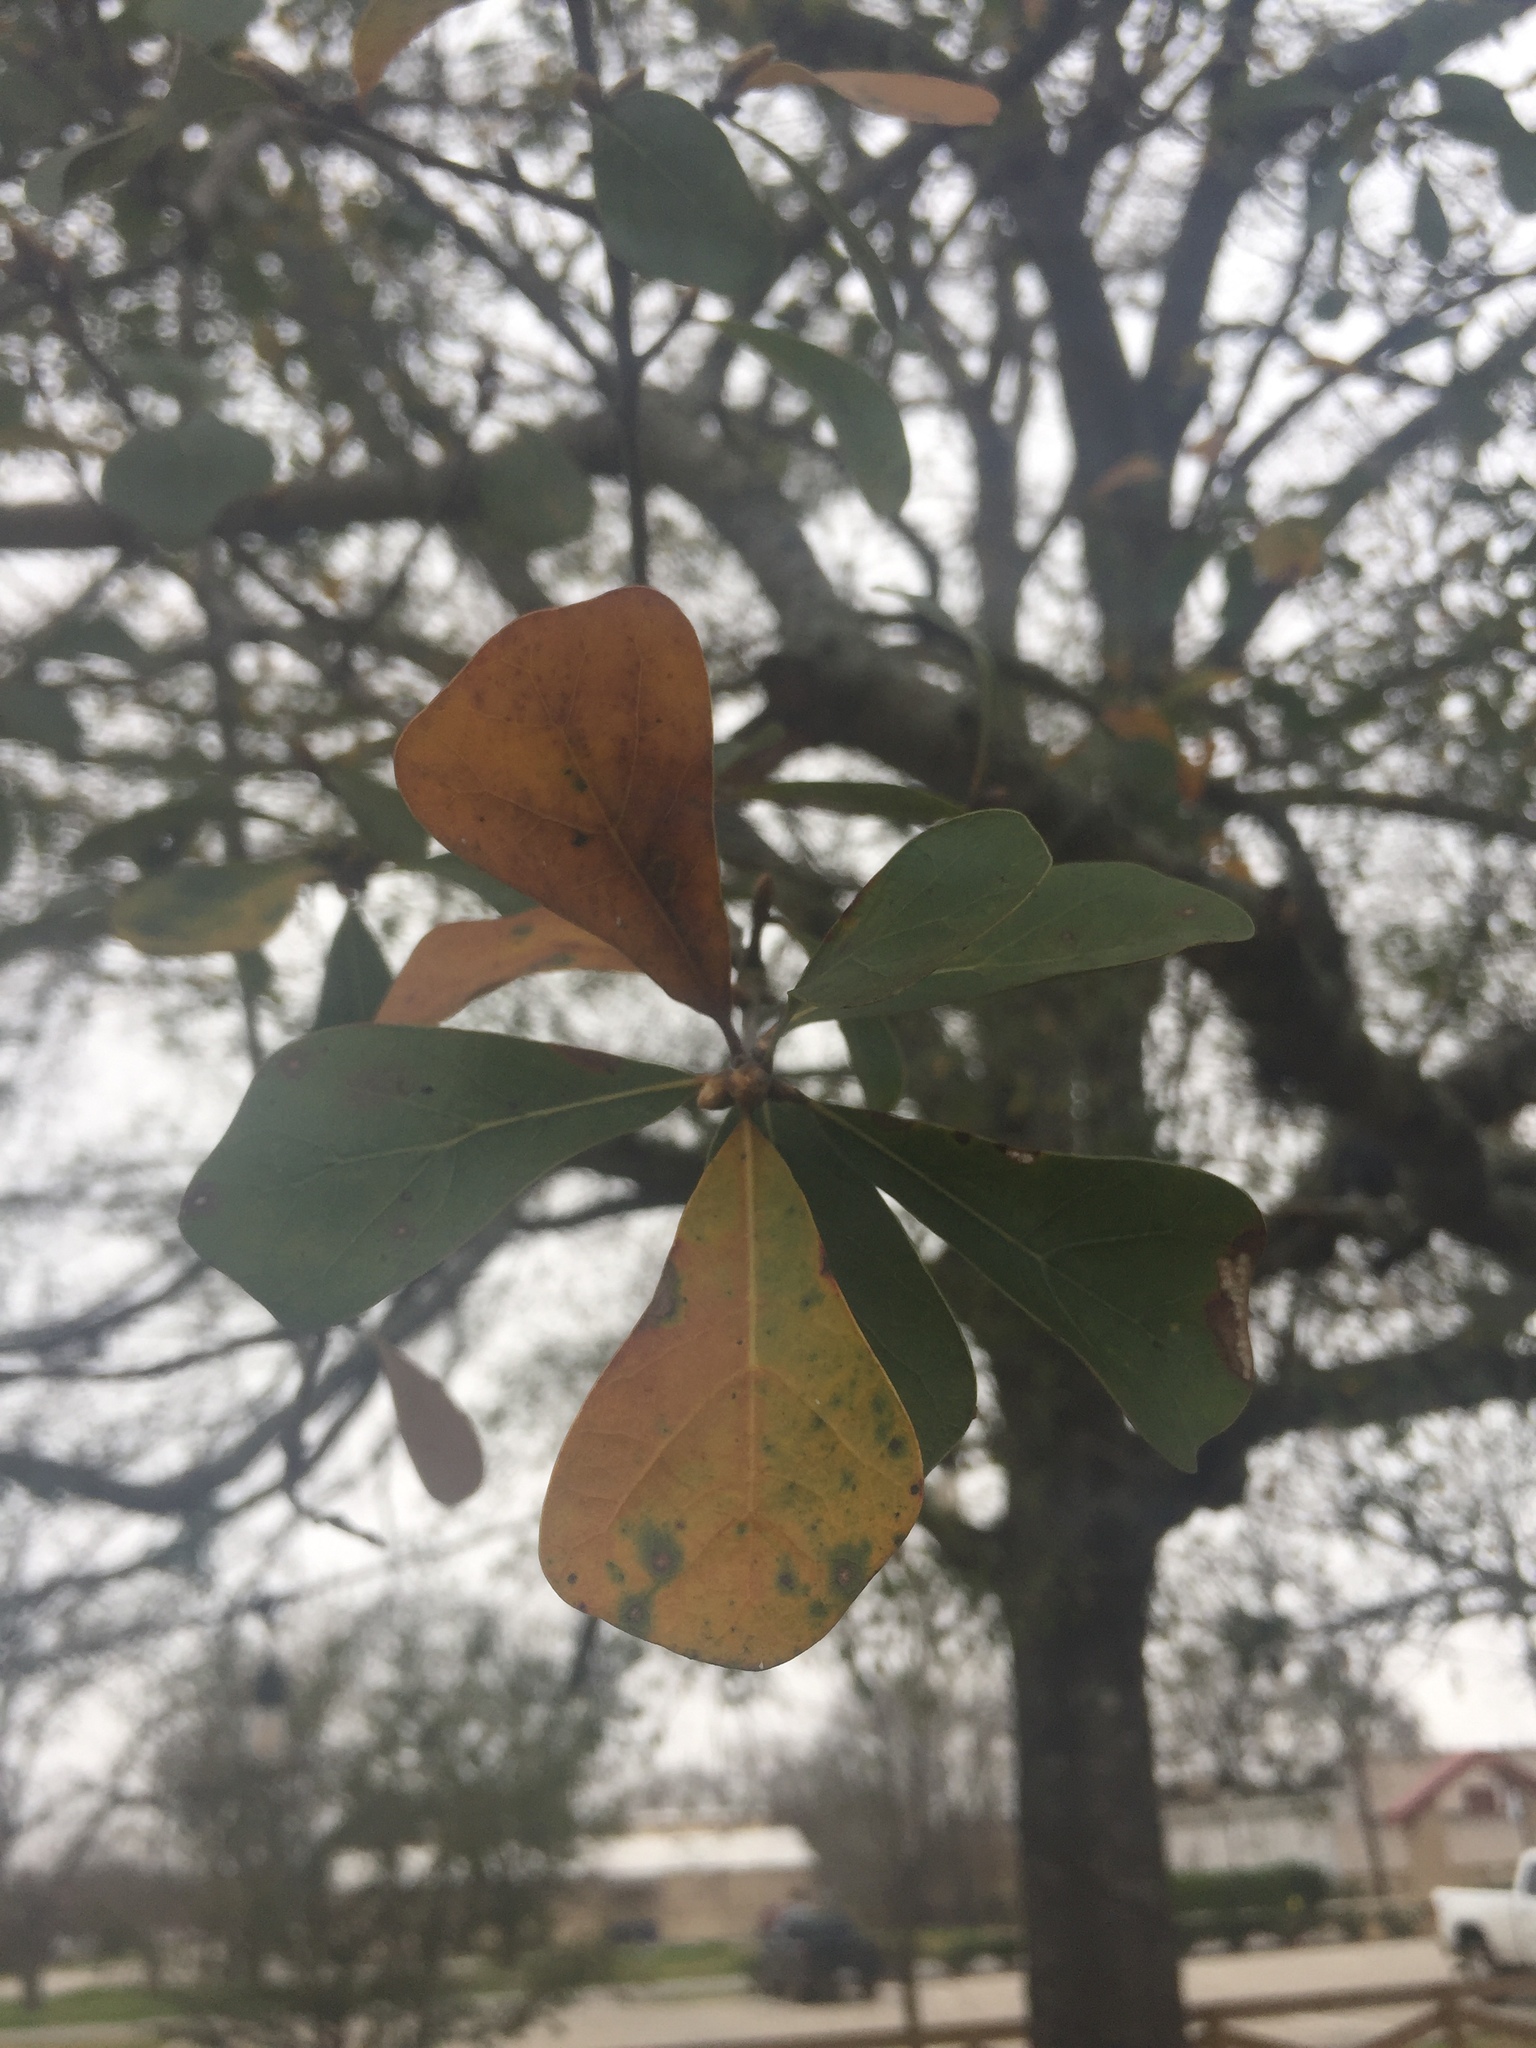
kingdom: Plantae
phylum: Tracheophyta
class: Magnoliopsida
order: Fagales
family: Fagaceae
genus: Quercus
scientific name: Quercus nigra
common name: Water oak
